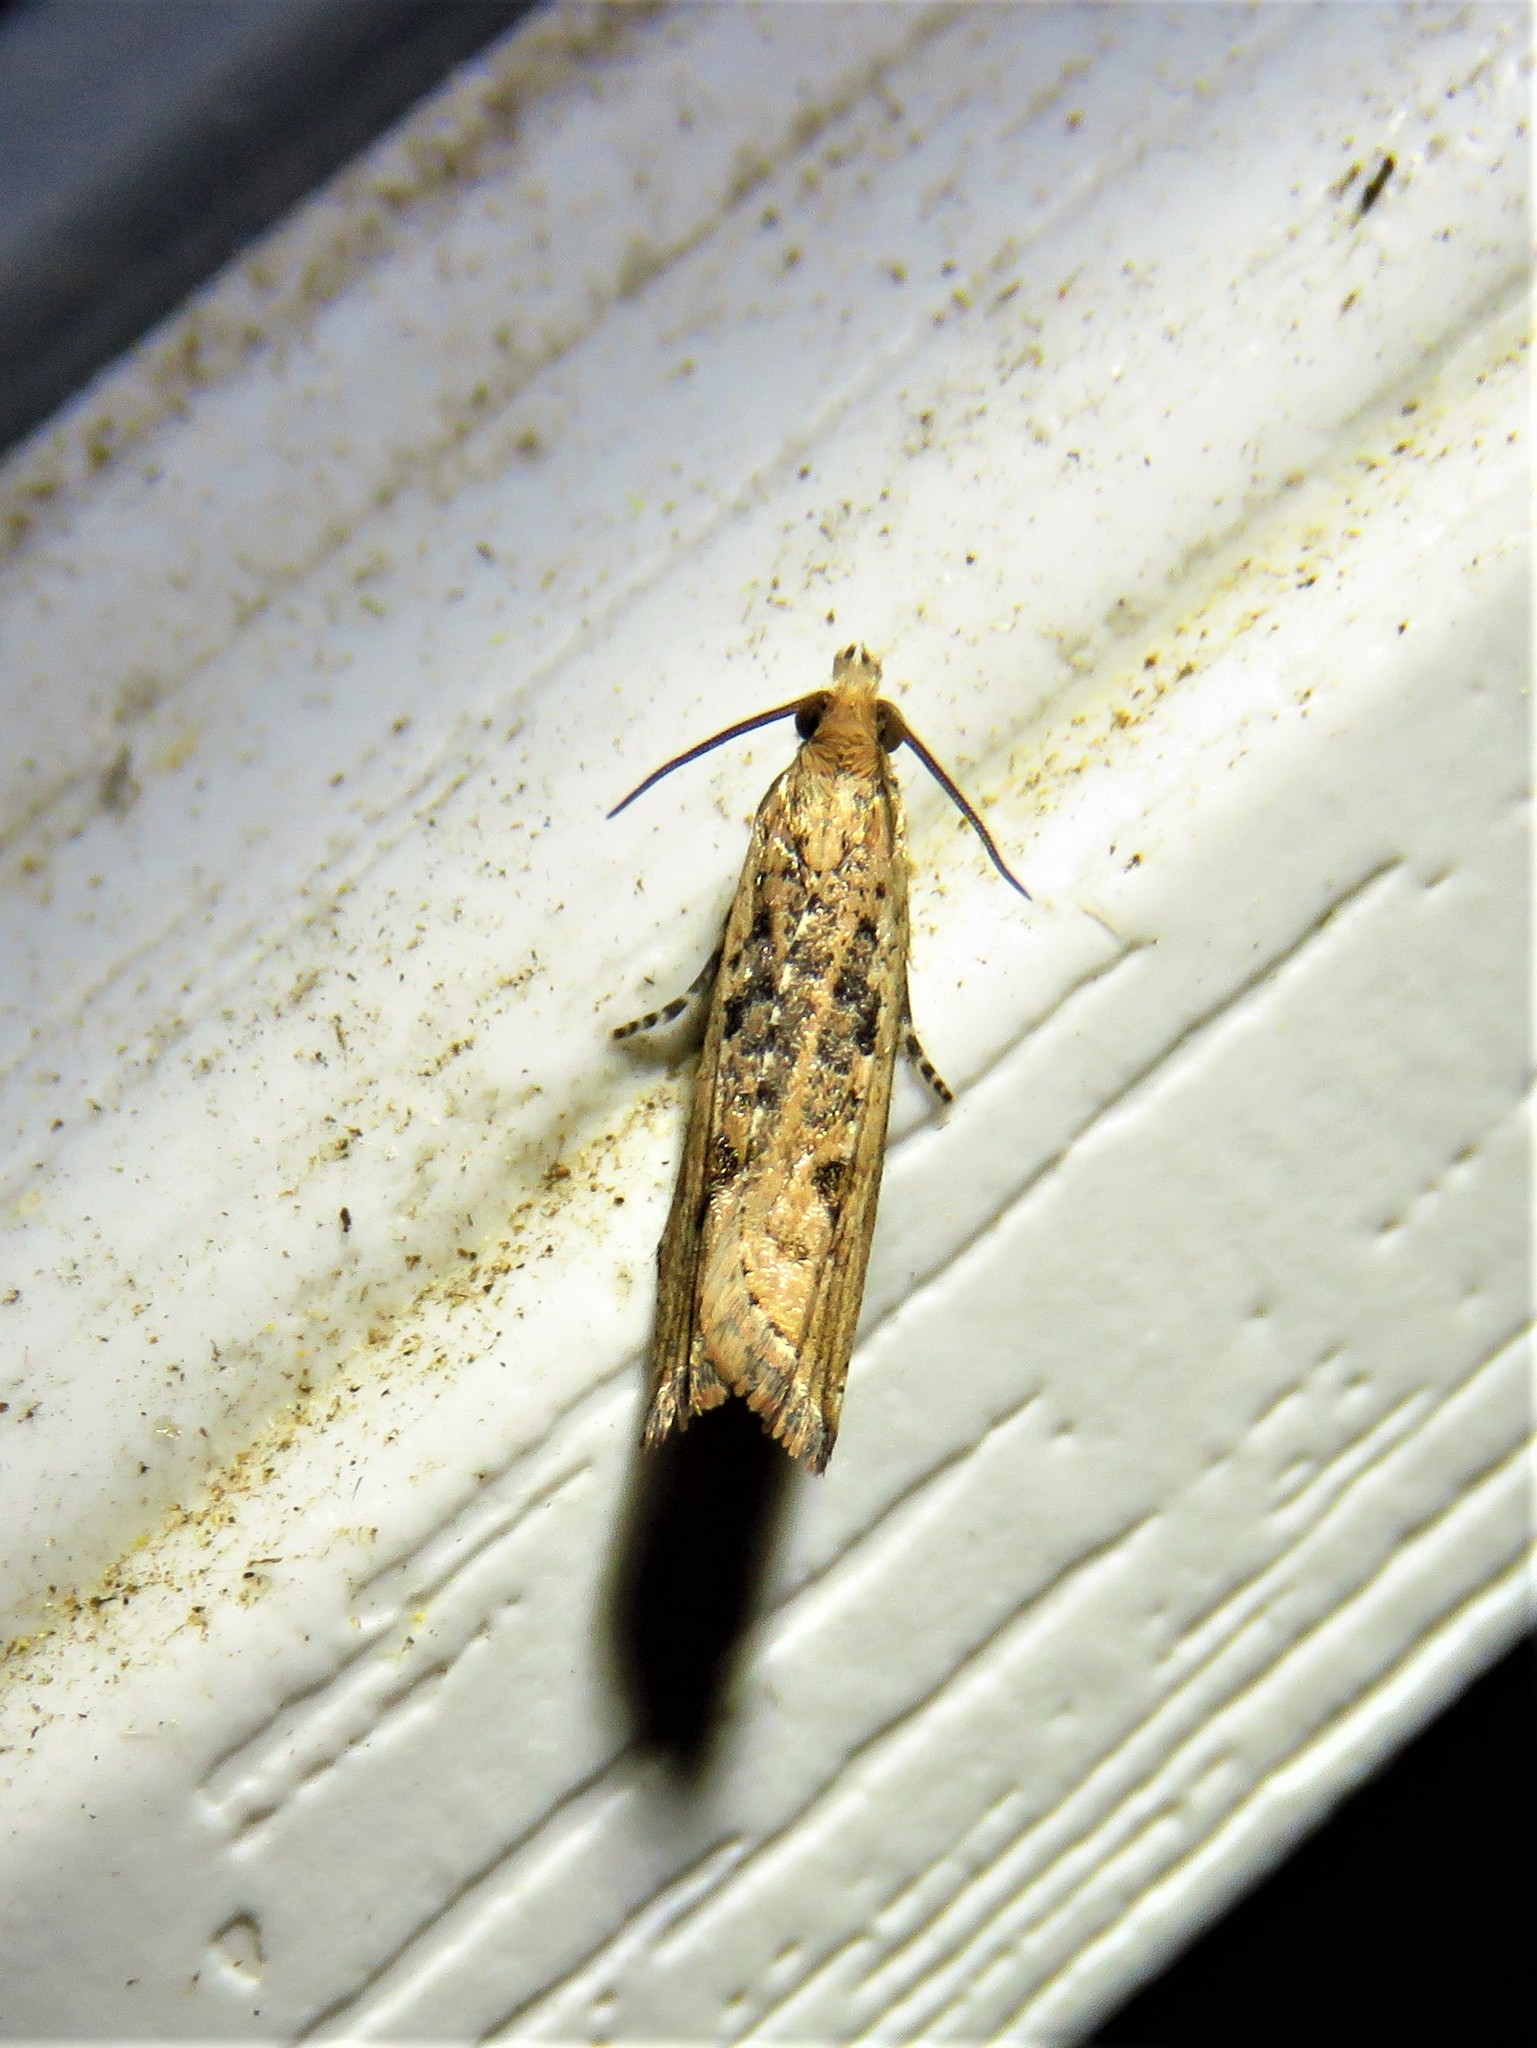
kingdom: Animalia
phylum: Arthropoda
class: Insecta
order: Lepidoptera
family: Tortricidae
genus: Bactra
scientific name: Bactra verutana
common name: Javelin moth
